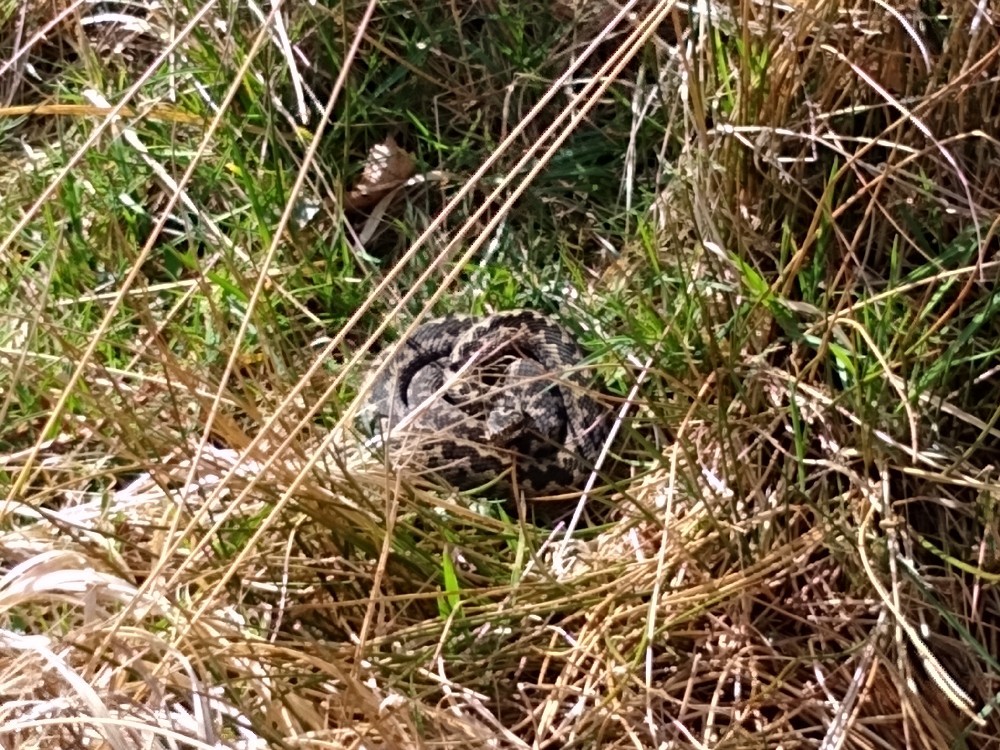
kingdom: Animalia
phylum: Chordata
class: Squamata
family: Viperidae
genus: Vipera
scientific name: Vipera berus
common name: Adder
